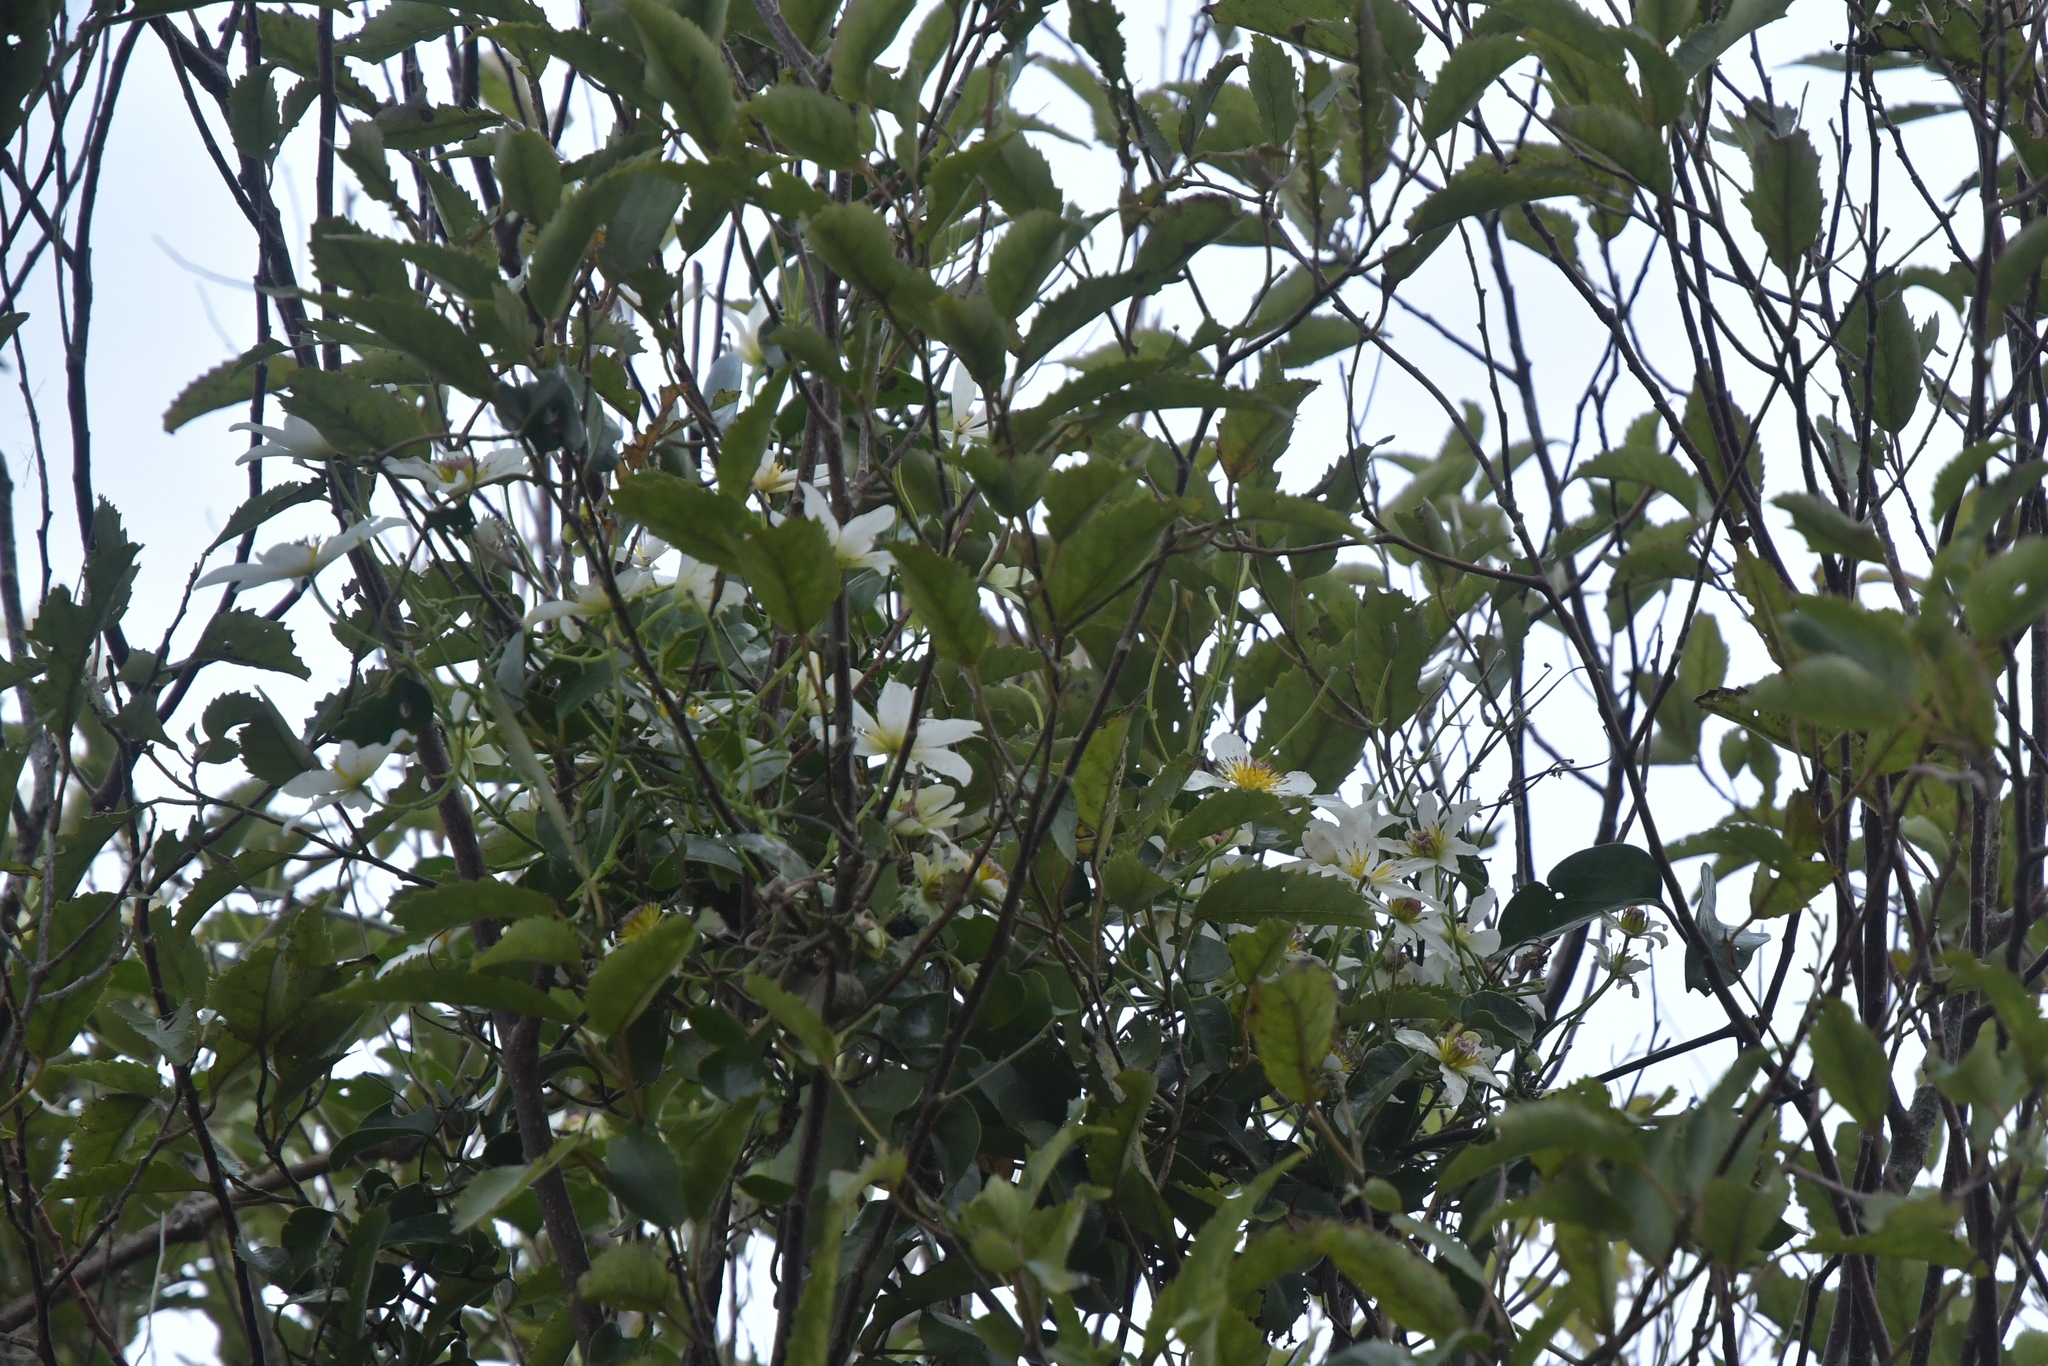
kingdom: Plantae
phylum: Tracheophyta
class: Magnoliopsida
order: Ranunculales
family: Ranunculaceae
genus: Clematis
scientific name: Clematis paniculata
